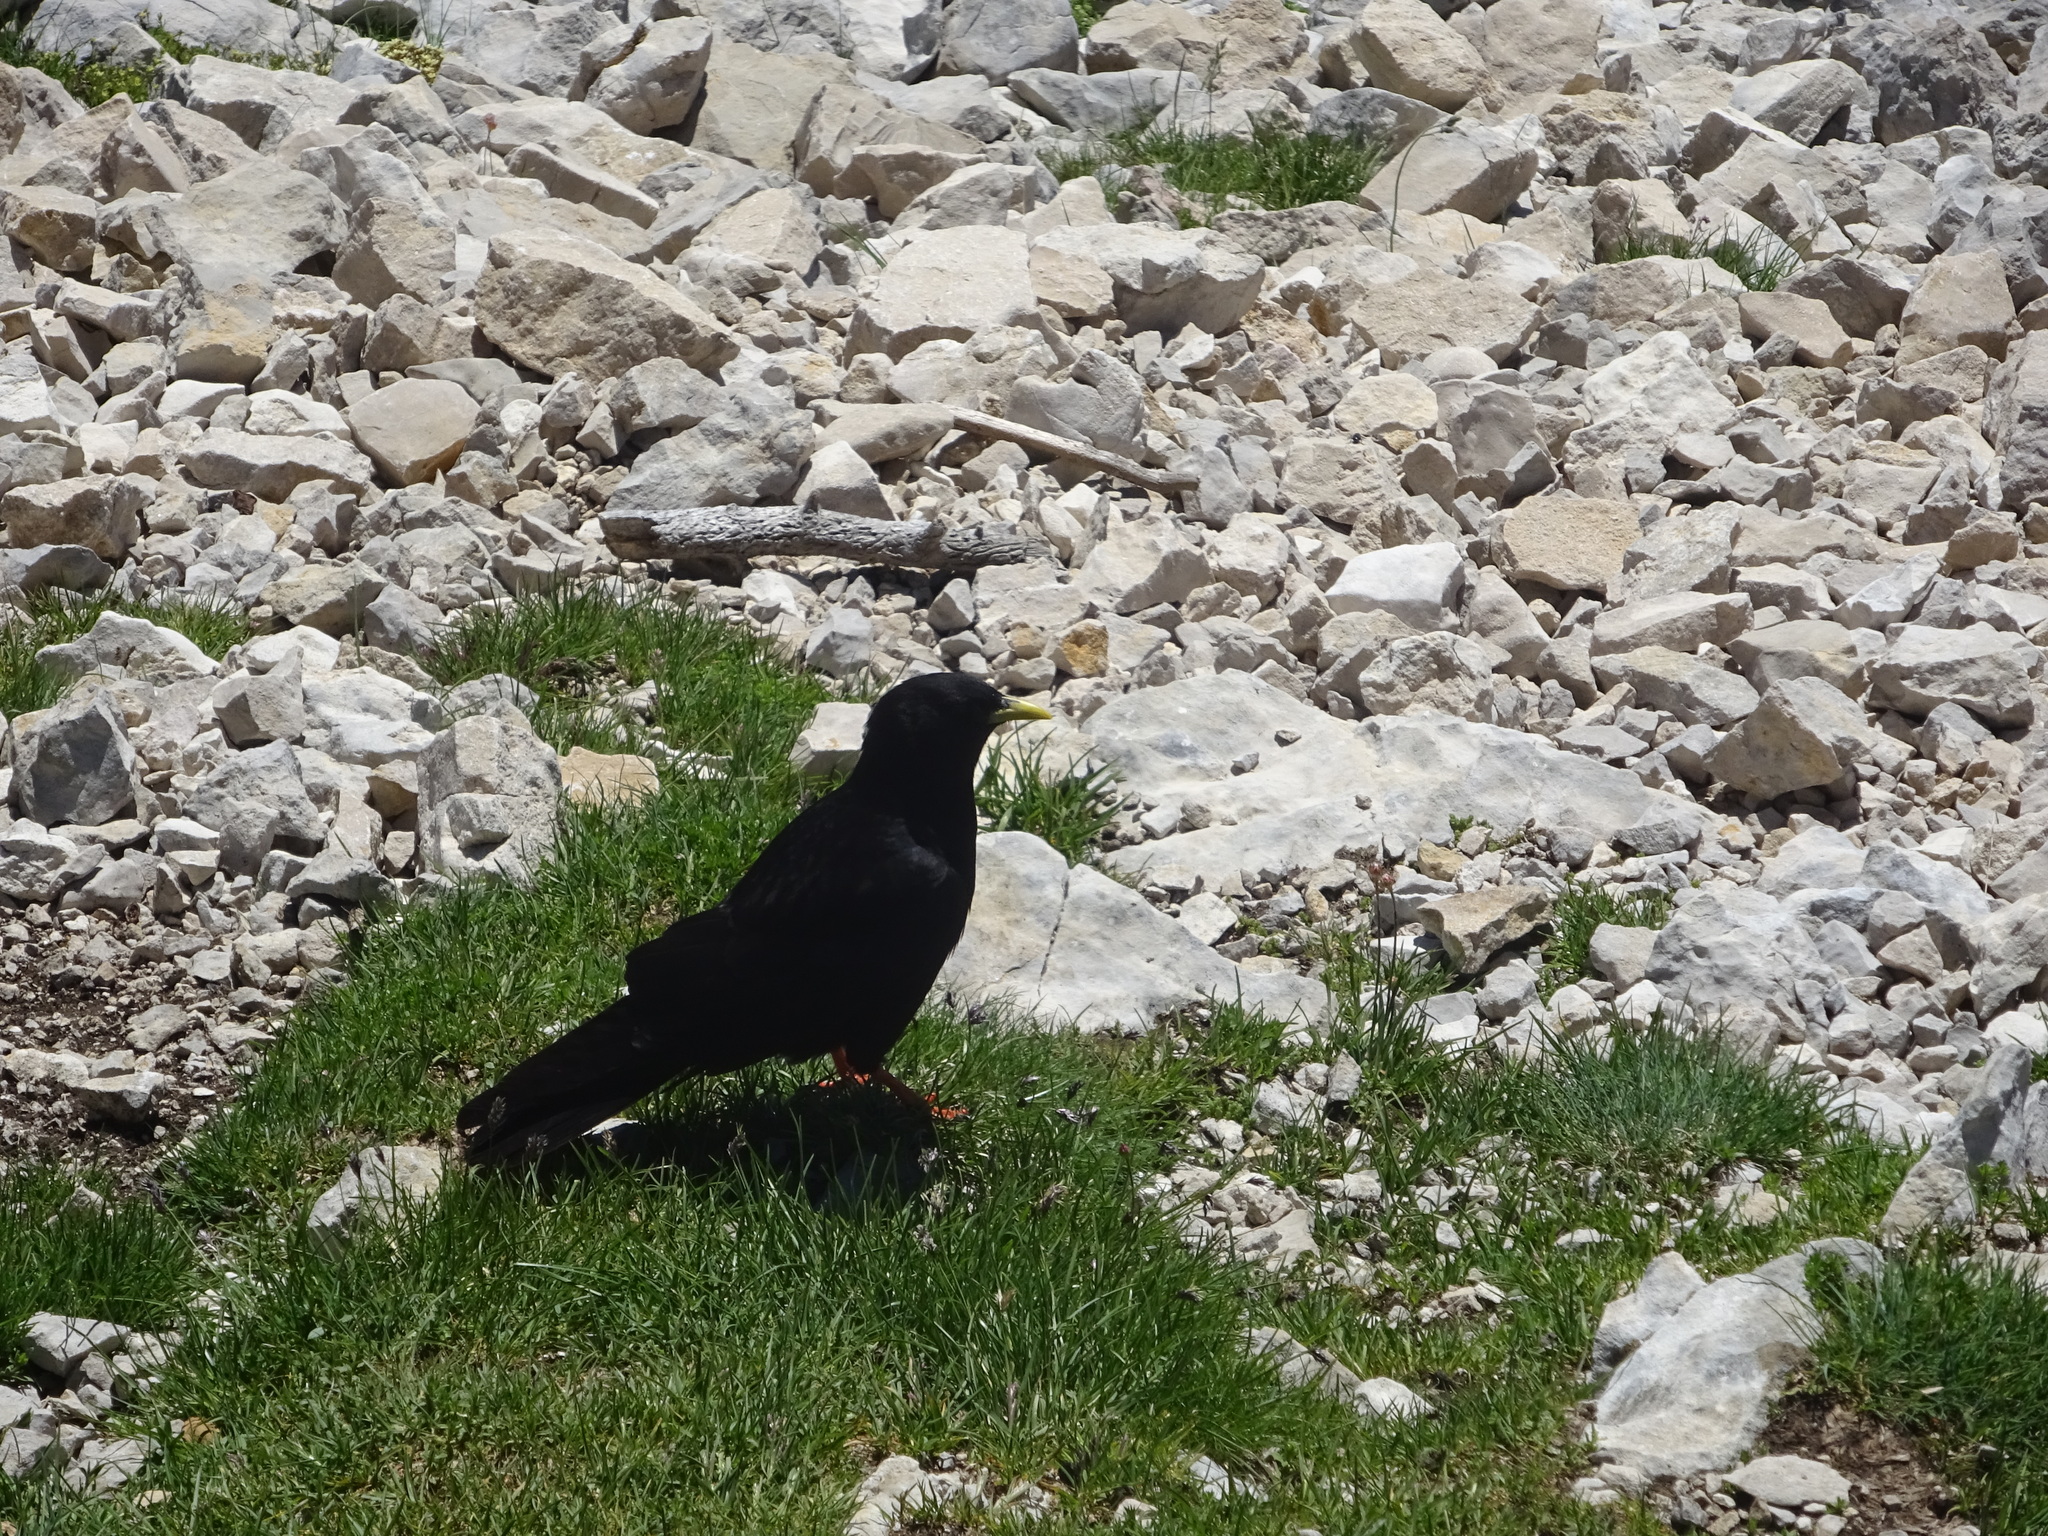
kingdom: Animalia
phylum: Chordata
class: Aves
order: Passeriformes
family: Corvidae
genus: Pyrrhocorax
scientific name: Pyrrhocorax graculus
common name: Alpine chough
